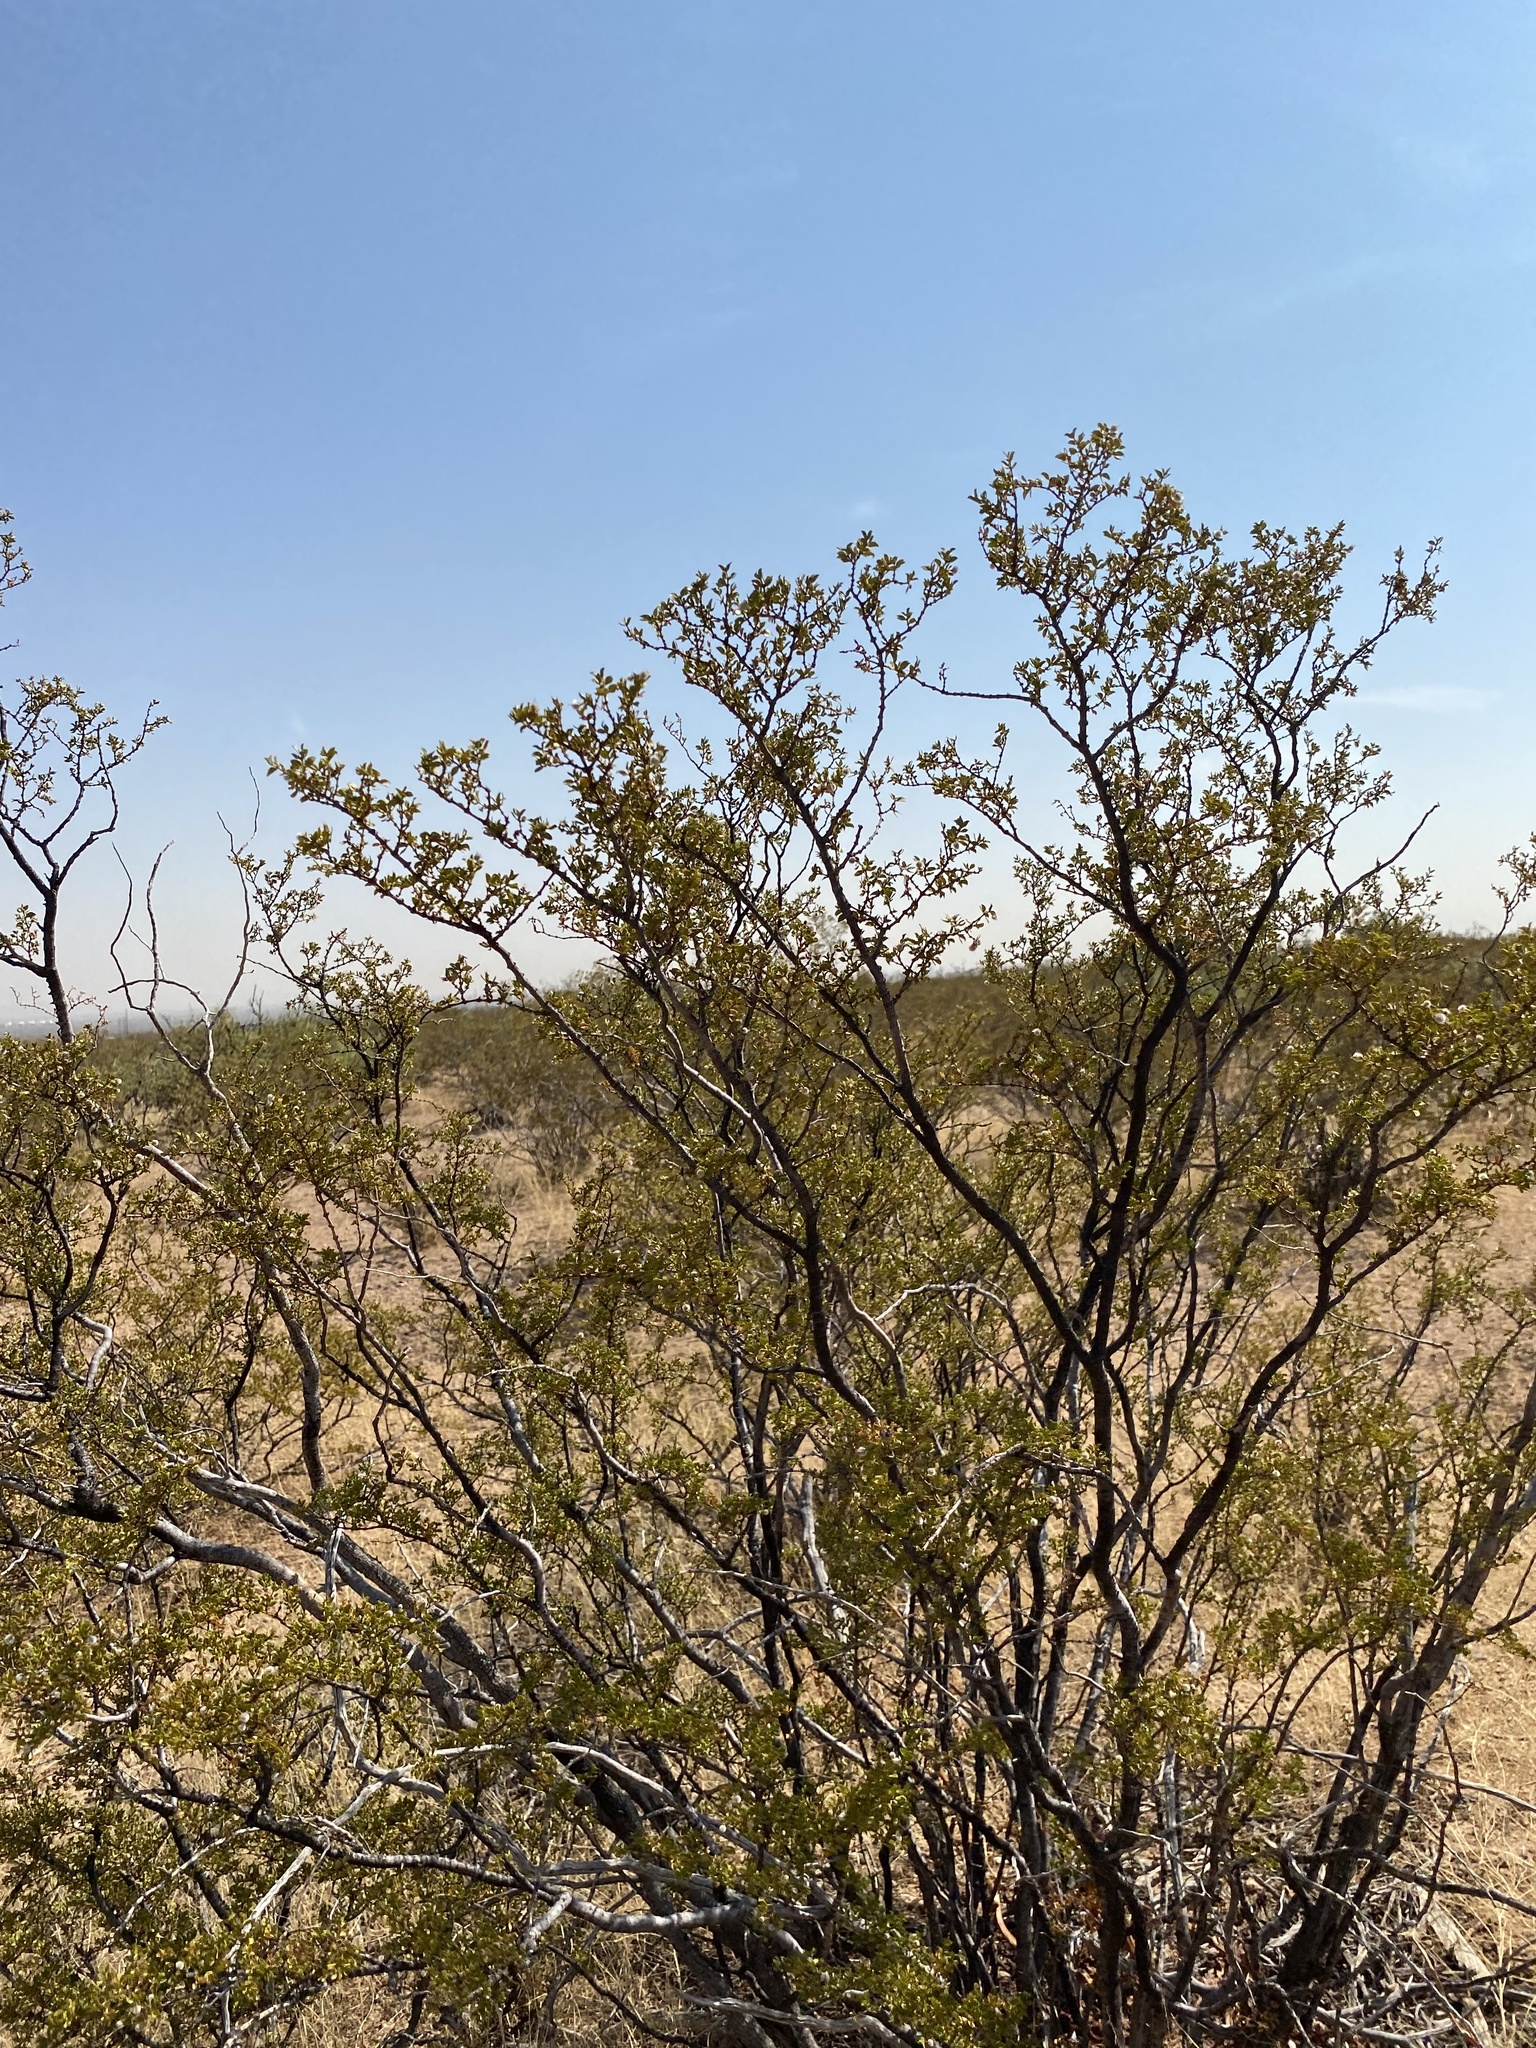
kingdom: Plantae
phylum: Tracheophyta
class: Magnoliopsida
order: Zygophyllales
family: Zygophyllaceae
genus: Larrea
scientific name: Larrea tridentata
